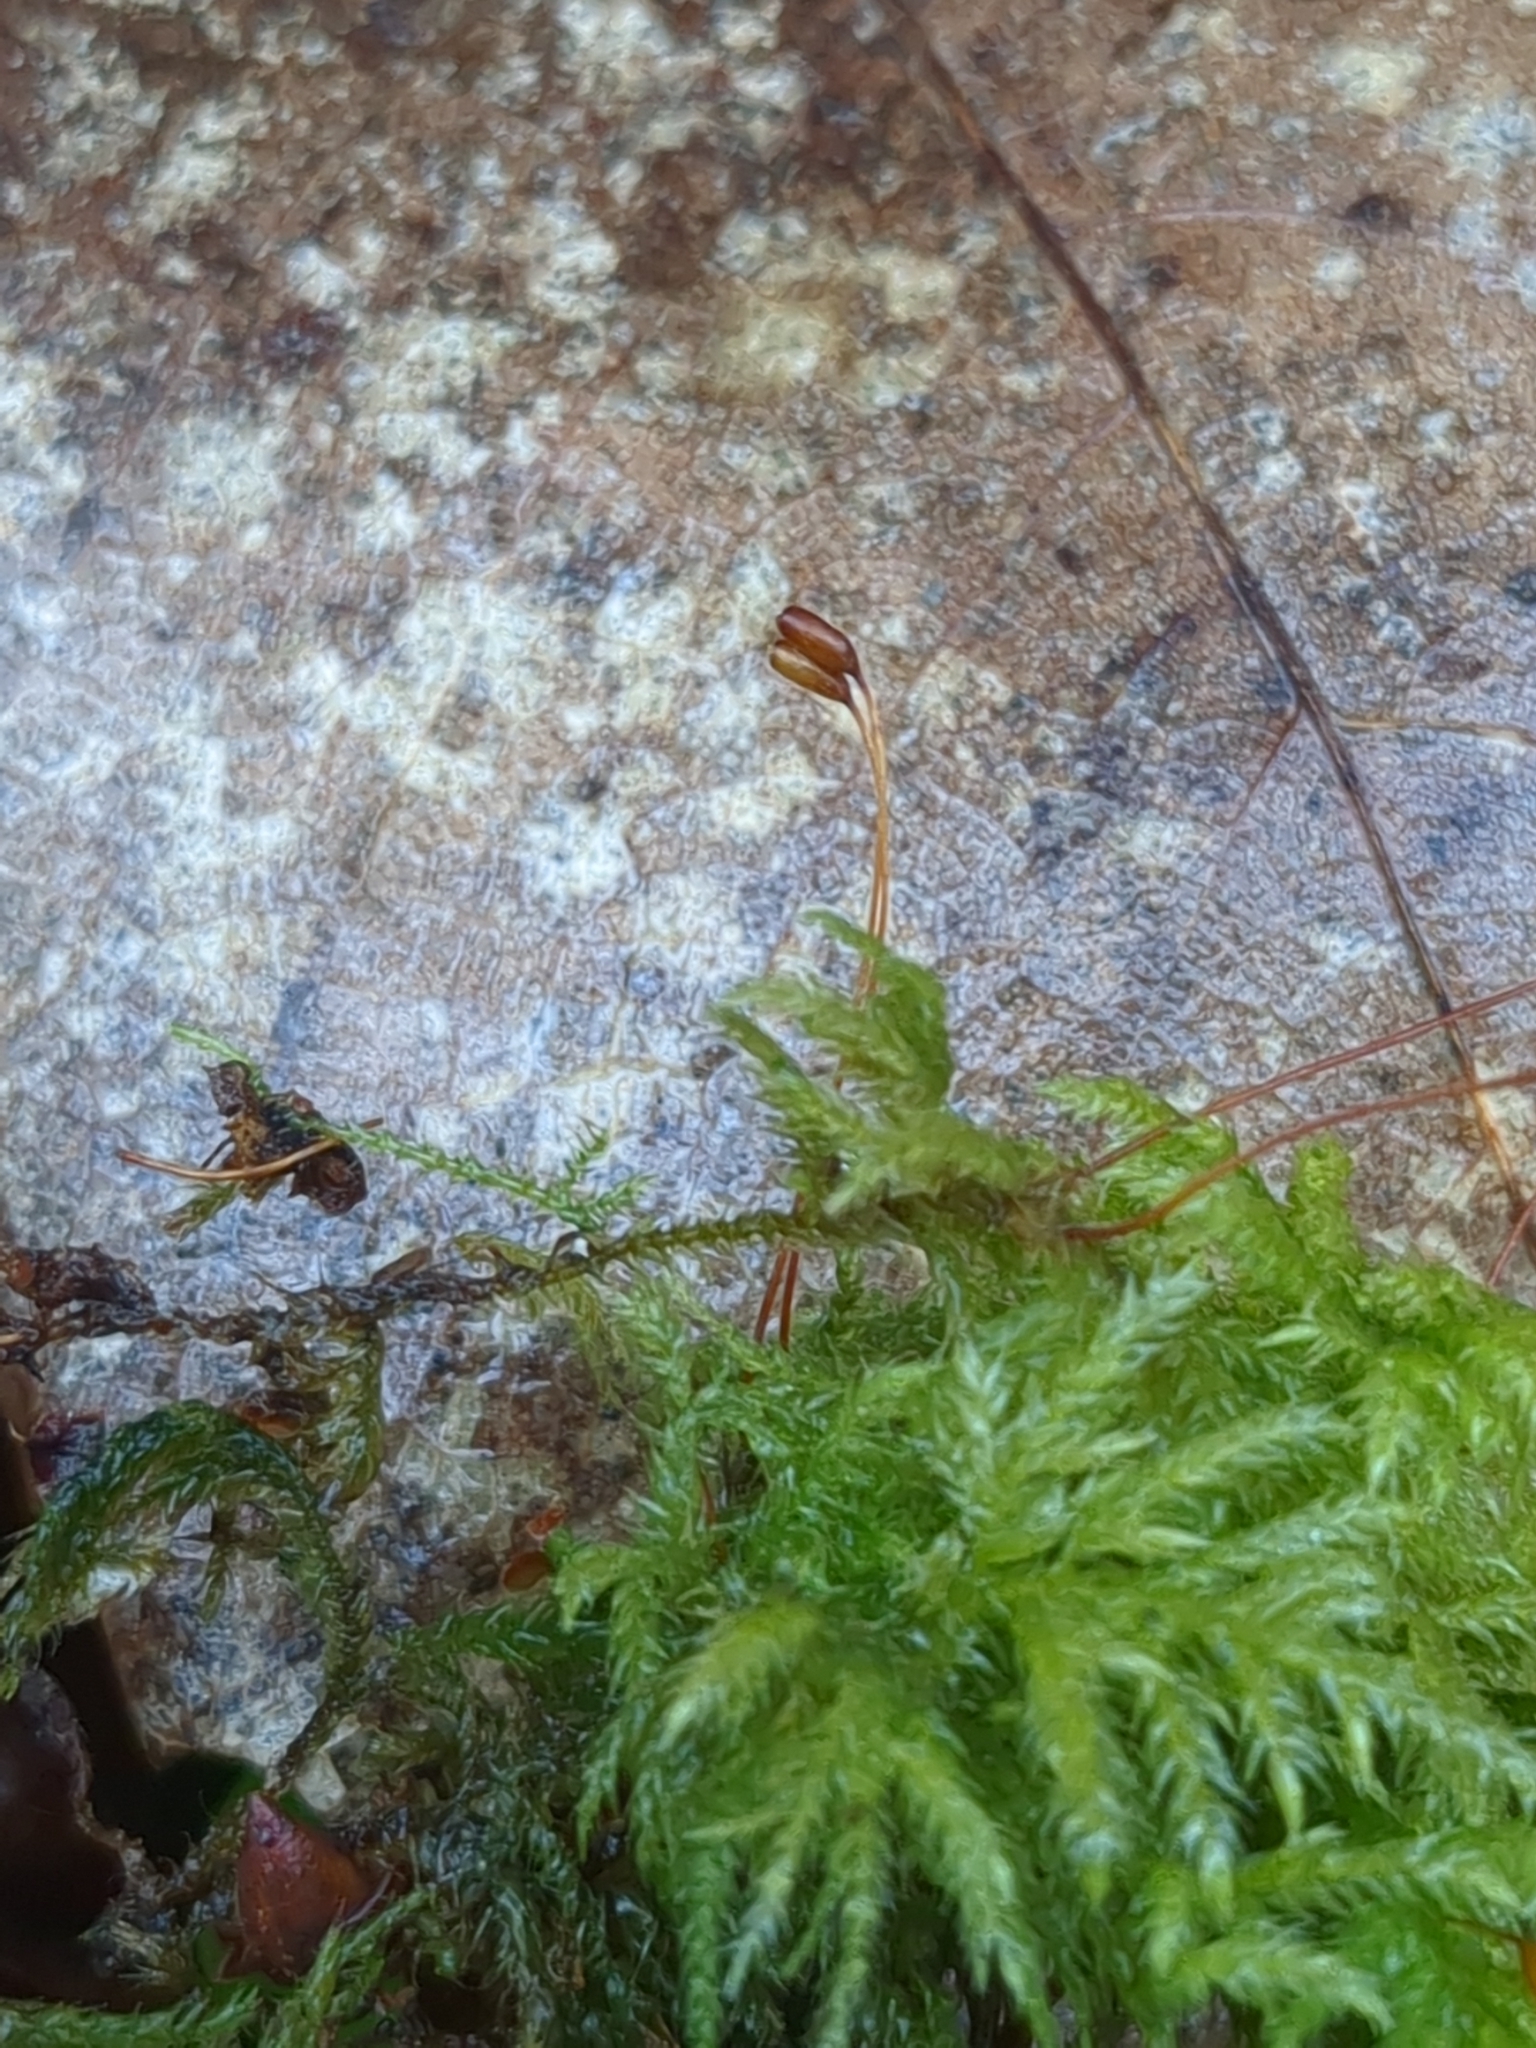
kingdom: Plantae
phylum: Bryophyta
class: Bryopsida
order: Hypnales
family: Lembophyllaceae
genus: Pseudisothecium
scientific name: Pseudisothecium myosuroides
